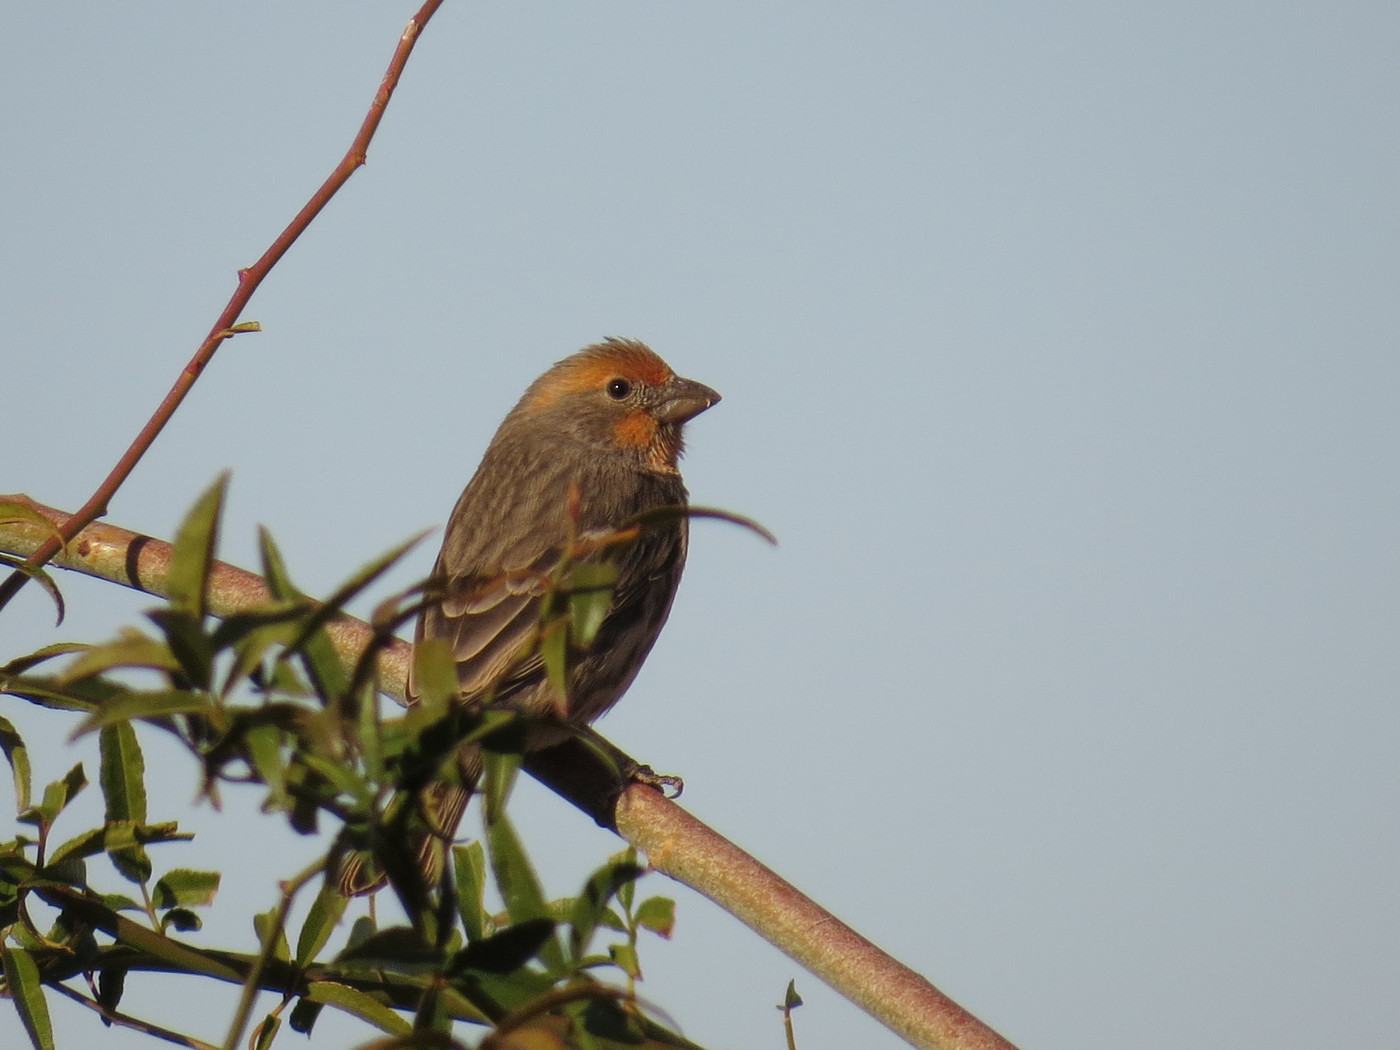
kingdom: Animalia
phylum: Chordata
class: Aves
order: Passeriformes
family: Fringillidae
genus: Haemorhous
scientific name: Haemorhous mexicanus
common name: House finch
